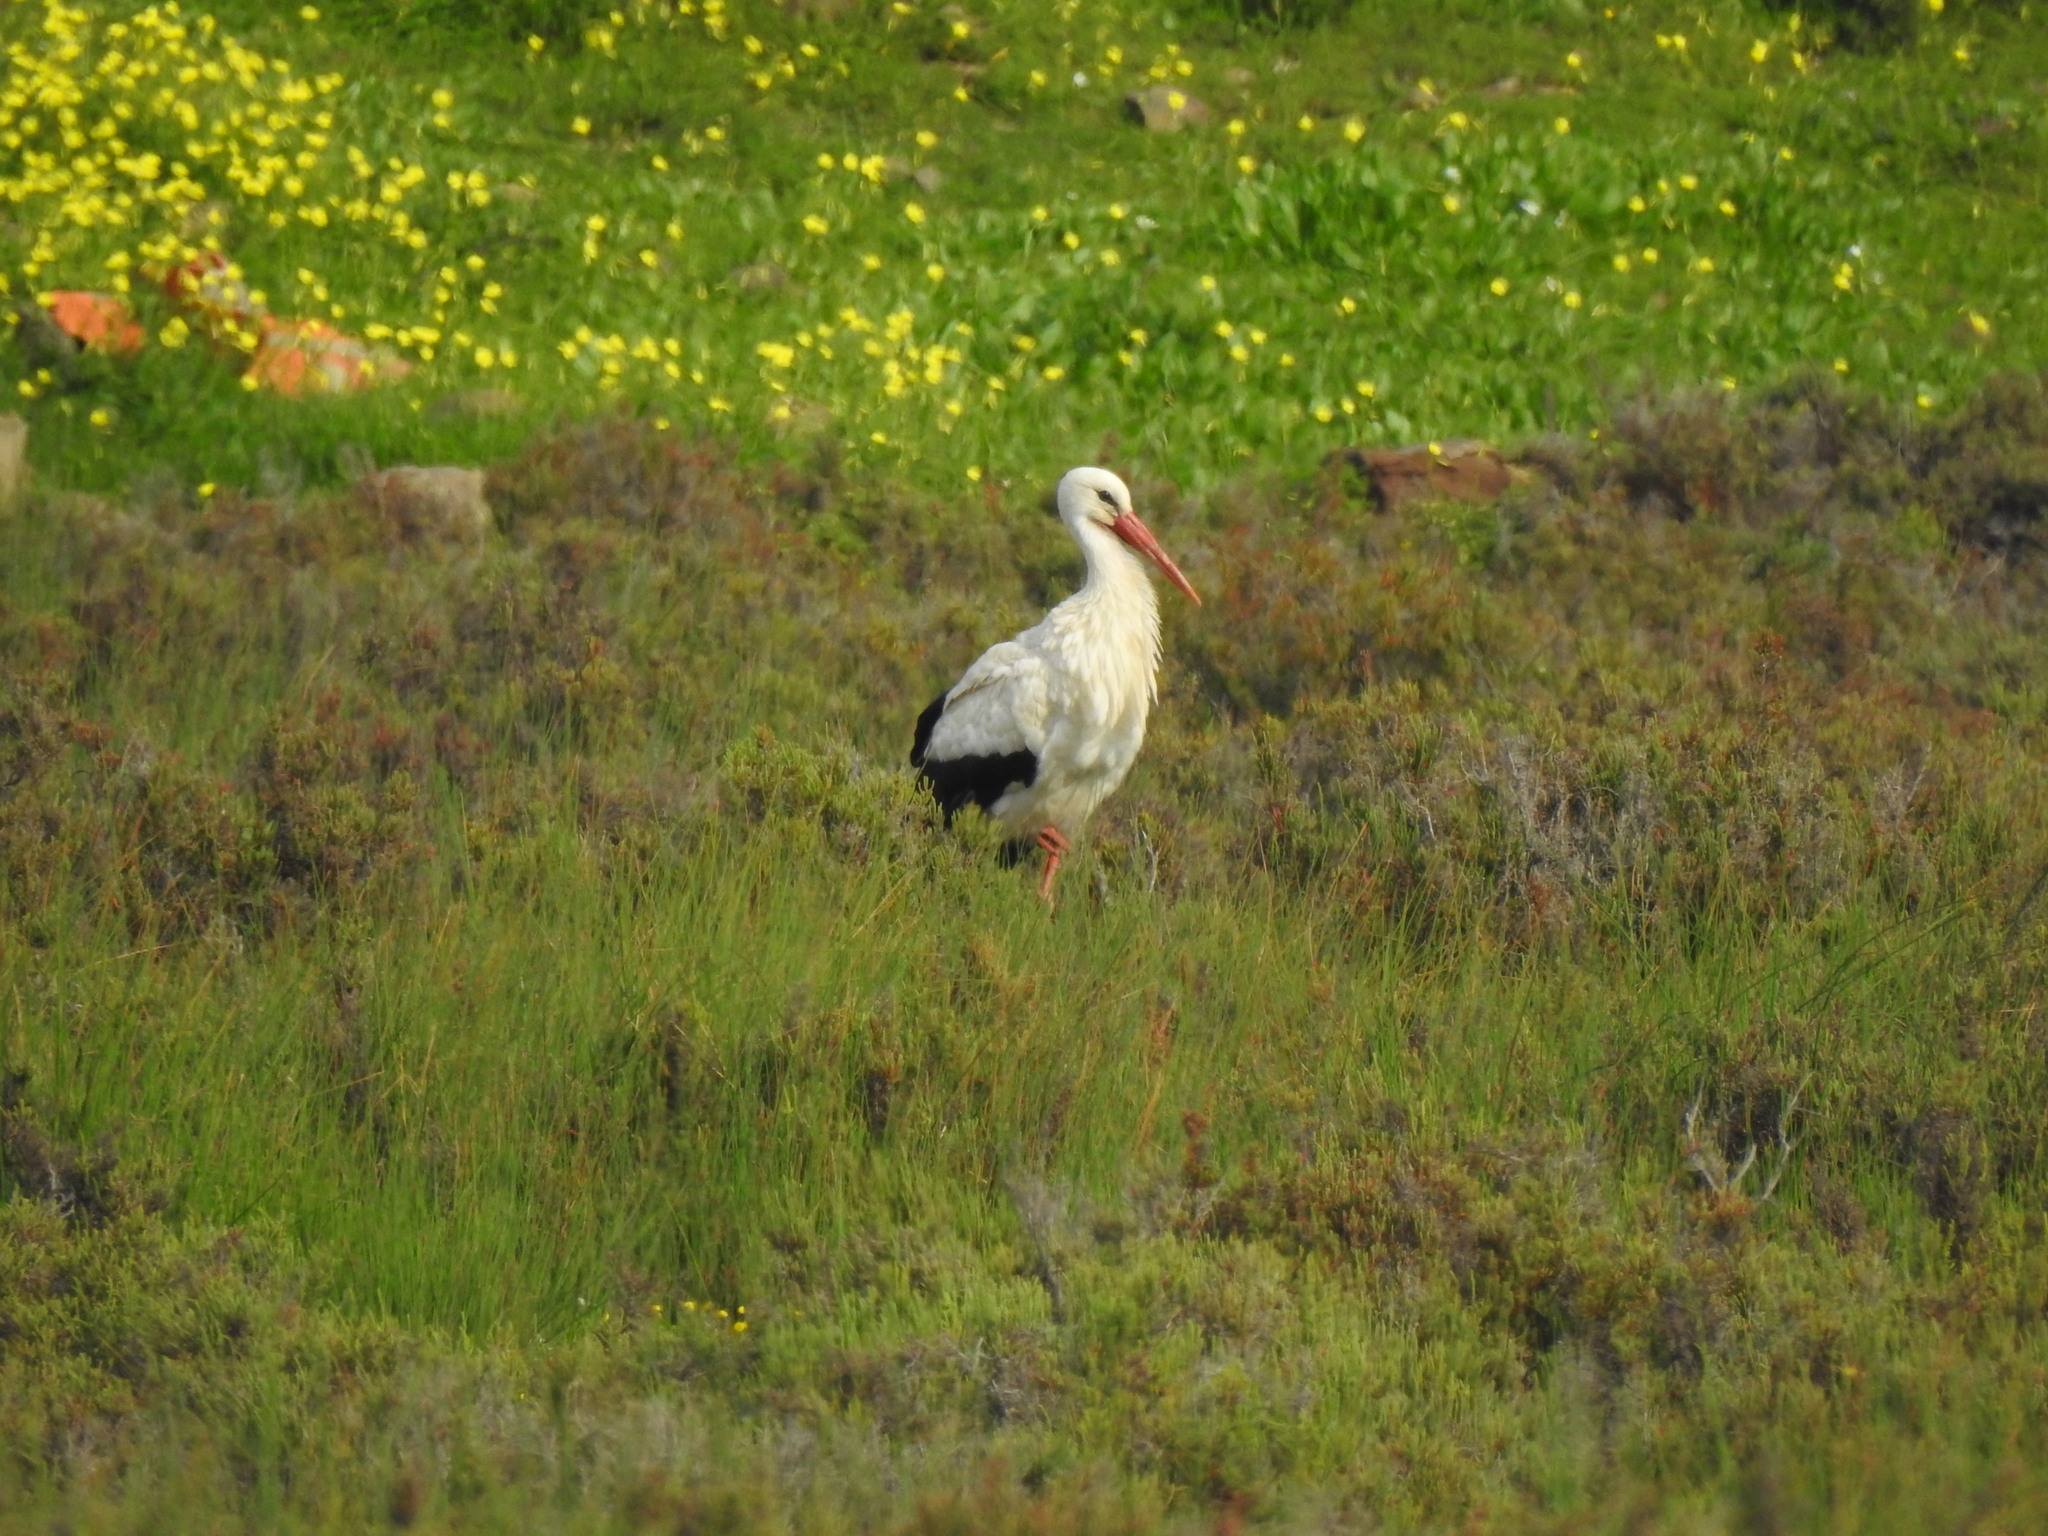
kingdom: Animalia
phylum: Chordata
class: Aves
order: Ciconiiformes
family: Ciconiidae
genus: Ciconia
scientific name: Ciconia ciconia
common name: White stork
